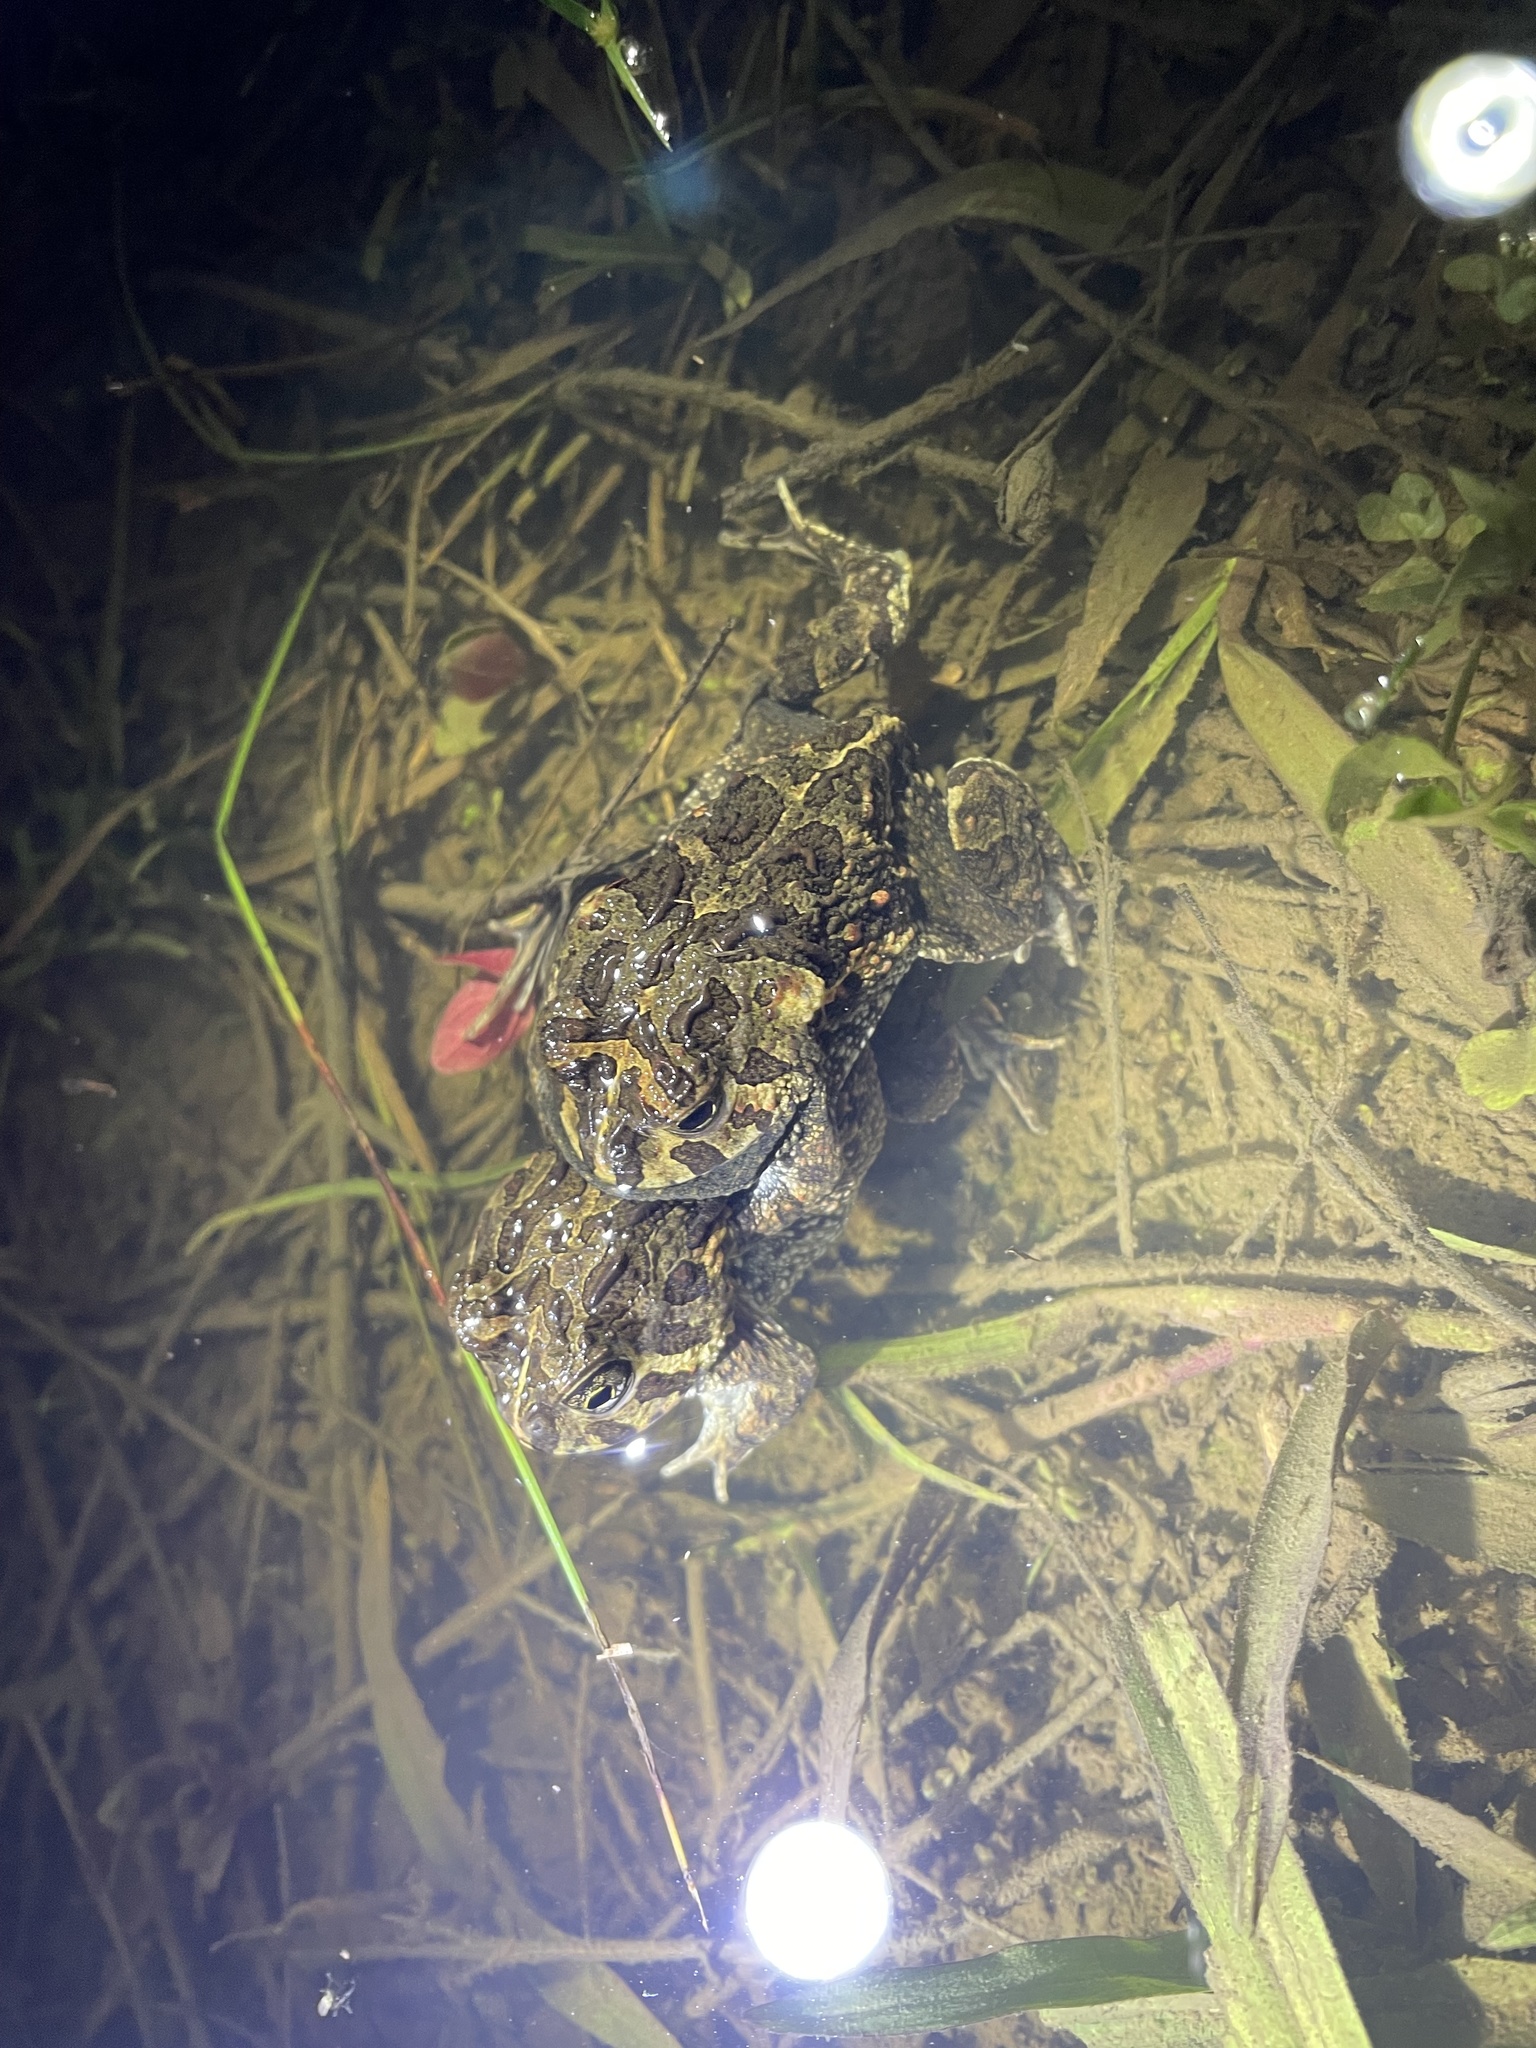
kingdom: Animalia
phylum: Chordata
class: Amphibia
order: Anura
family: Odontophrynidae
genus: Odontophrynus
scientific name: Odontophrynus
